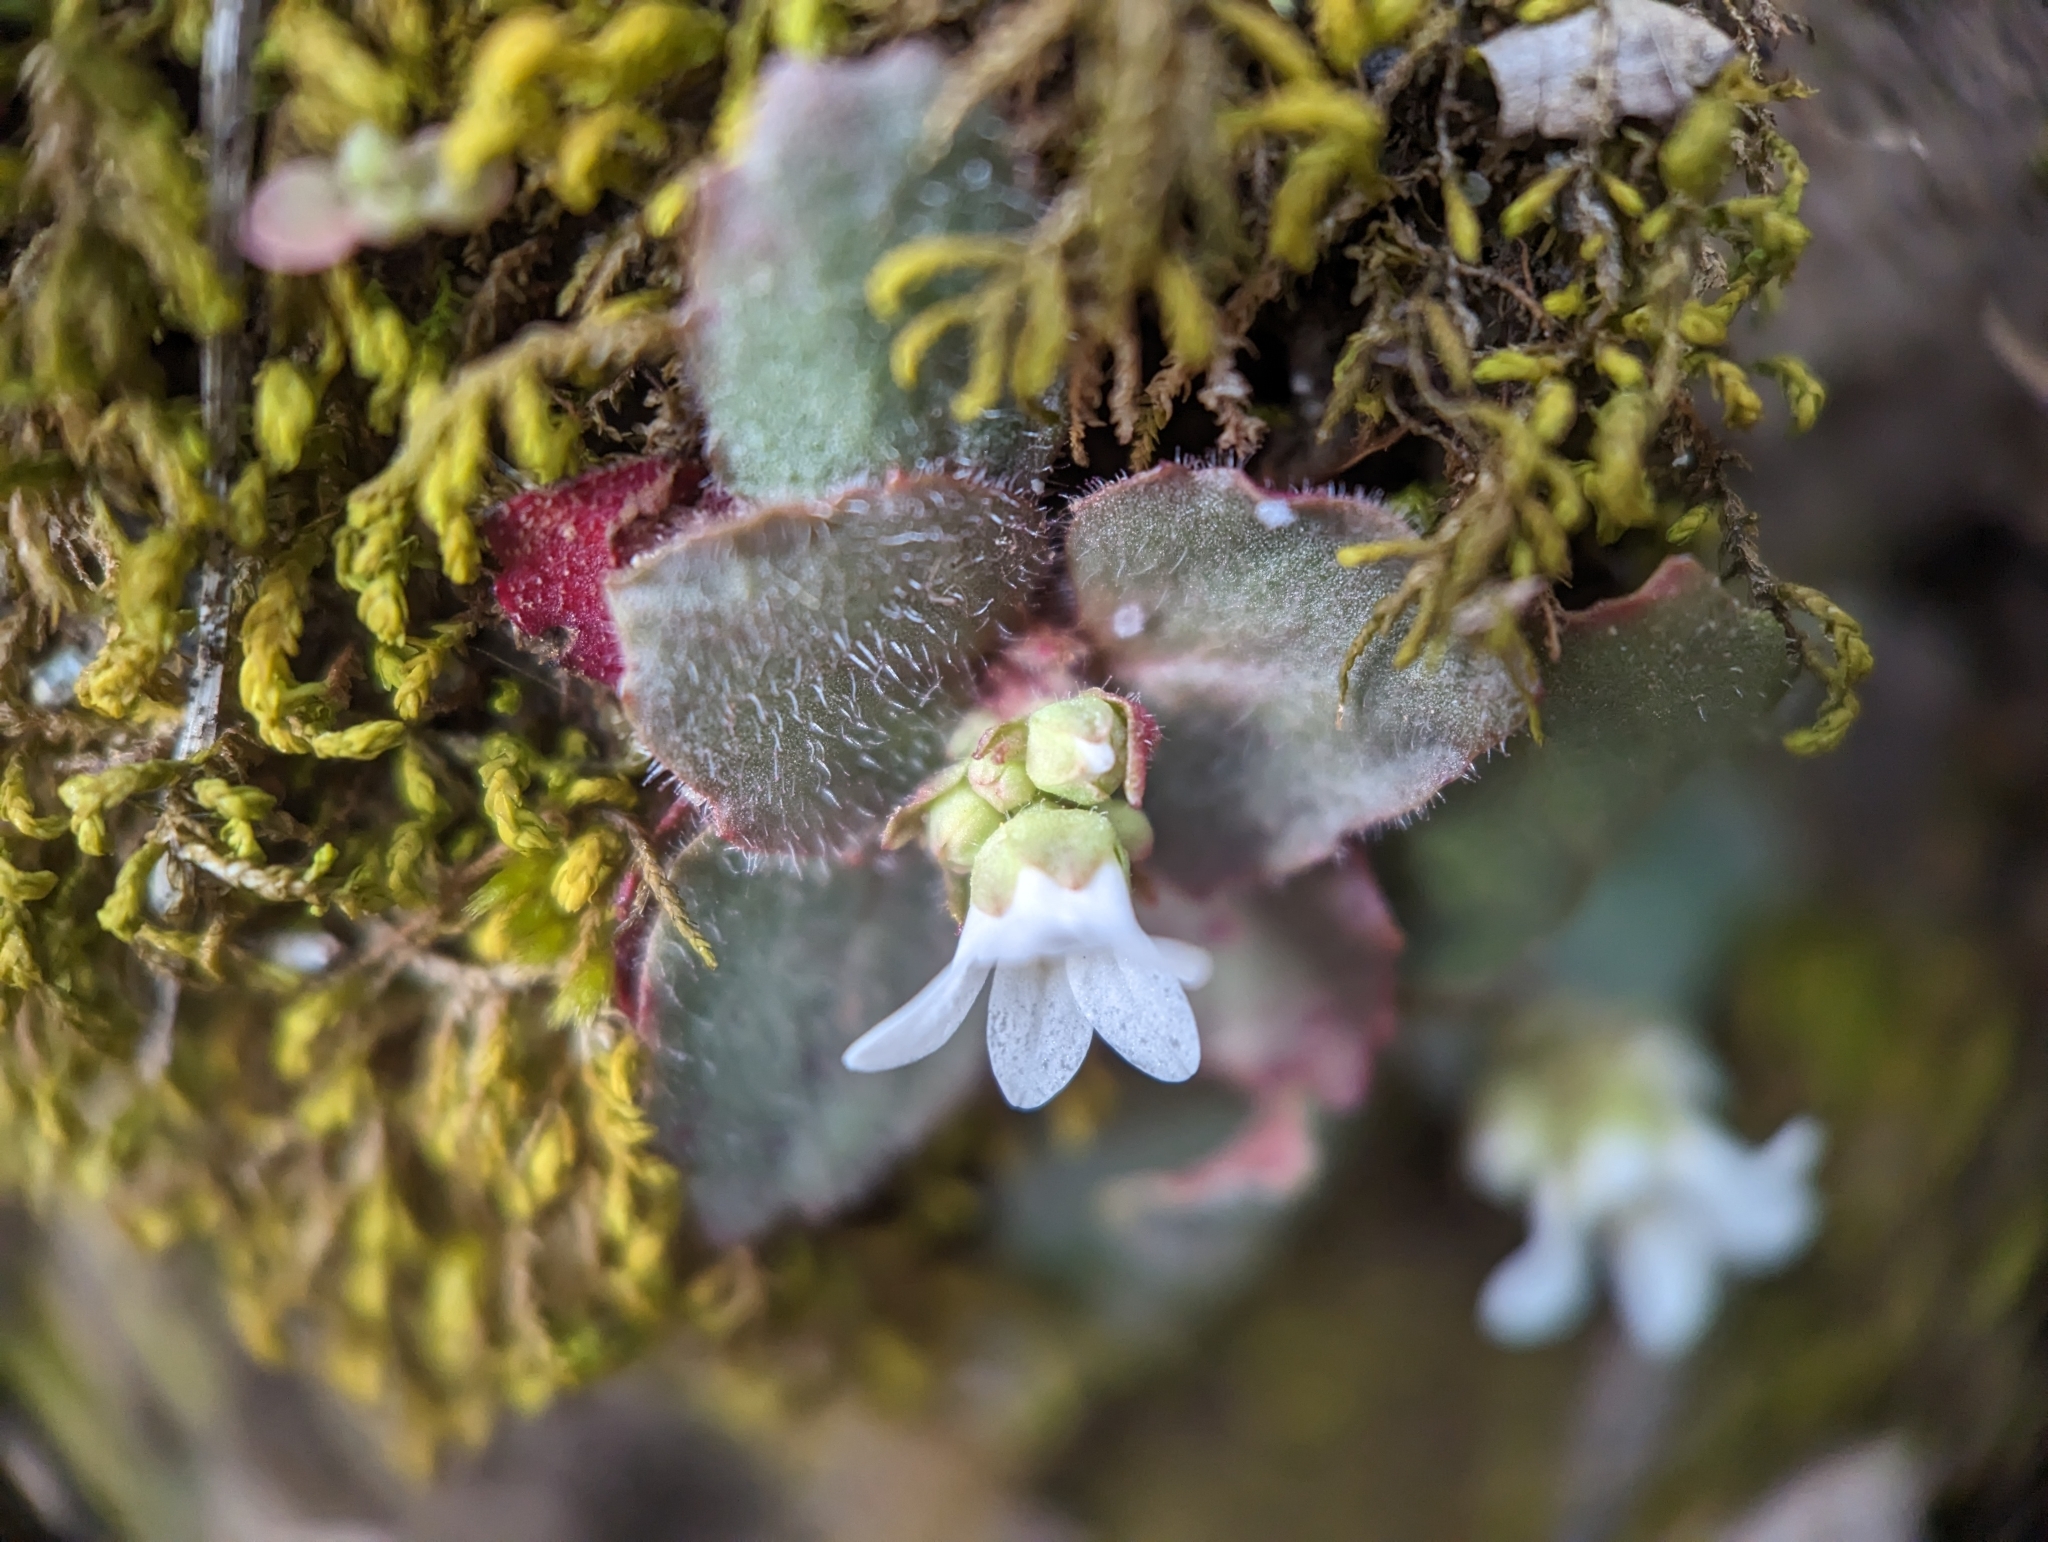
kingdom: Plantae
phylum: Tracheophyta
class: Magnoliopsida
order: Saxifragales
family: Saxifragaceae
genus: Micranthes
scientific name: Micranthes virginiensis
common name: Early saxifrage
